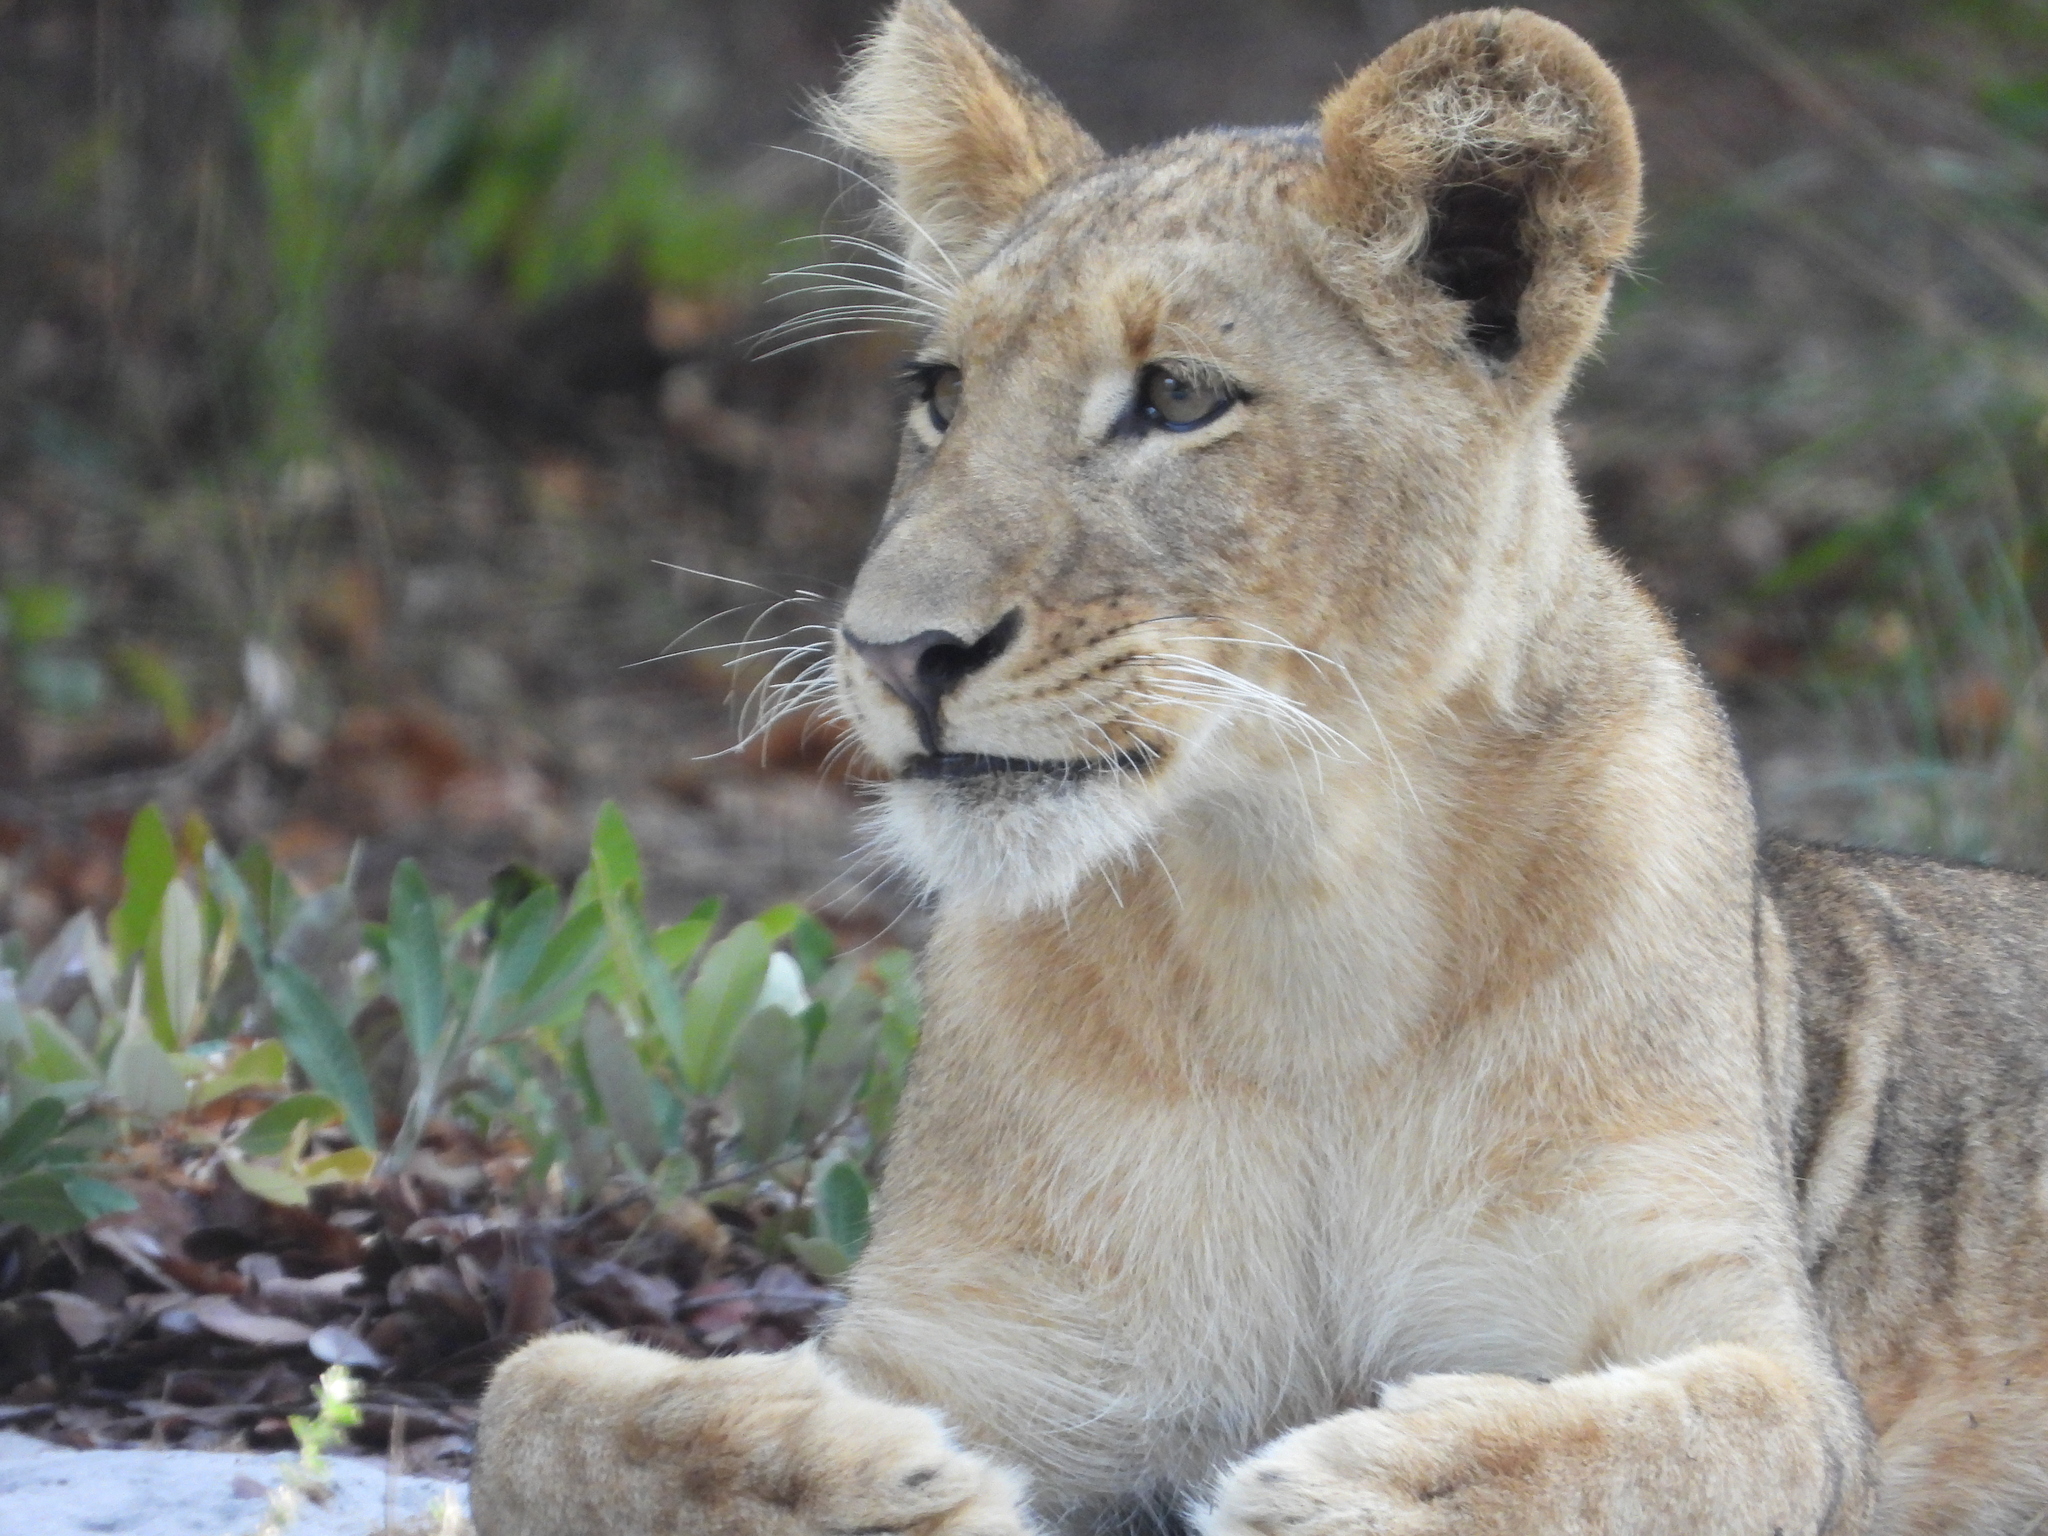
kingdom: Animalia
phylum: Chordata
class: Mammalia
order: Carnivora
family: Felidae
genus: Panthera
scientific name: Panthera leo
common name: Lion
